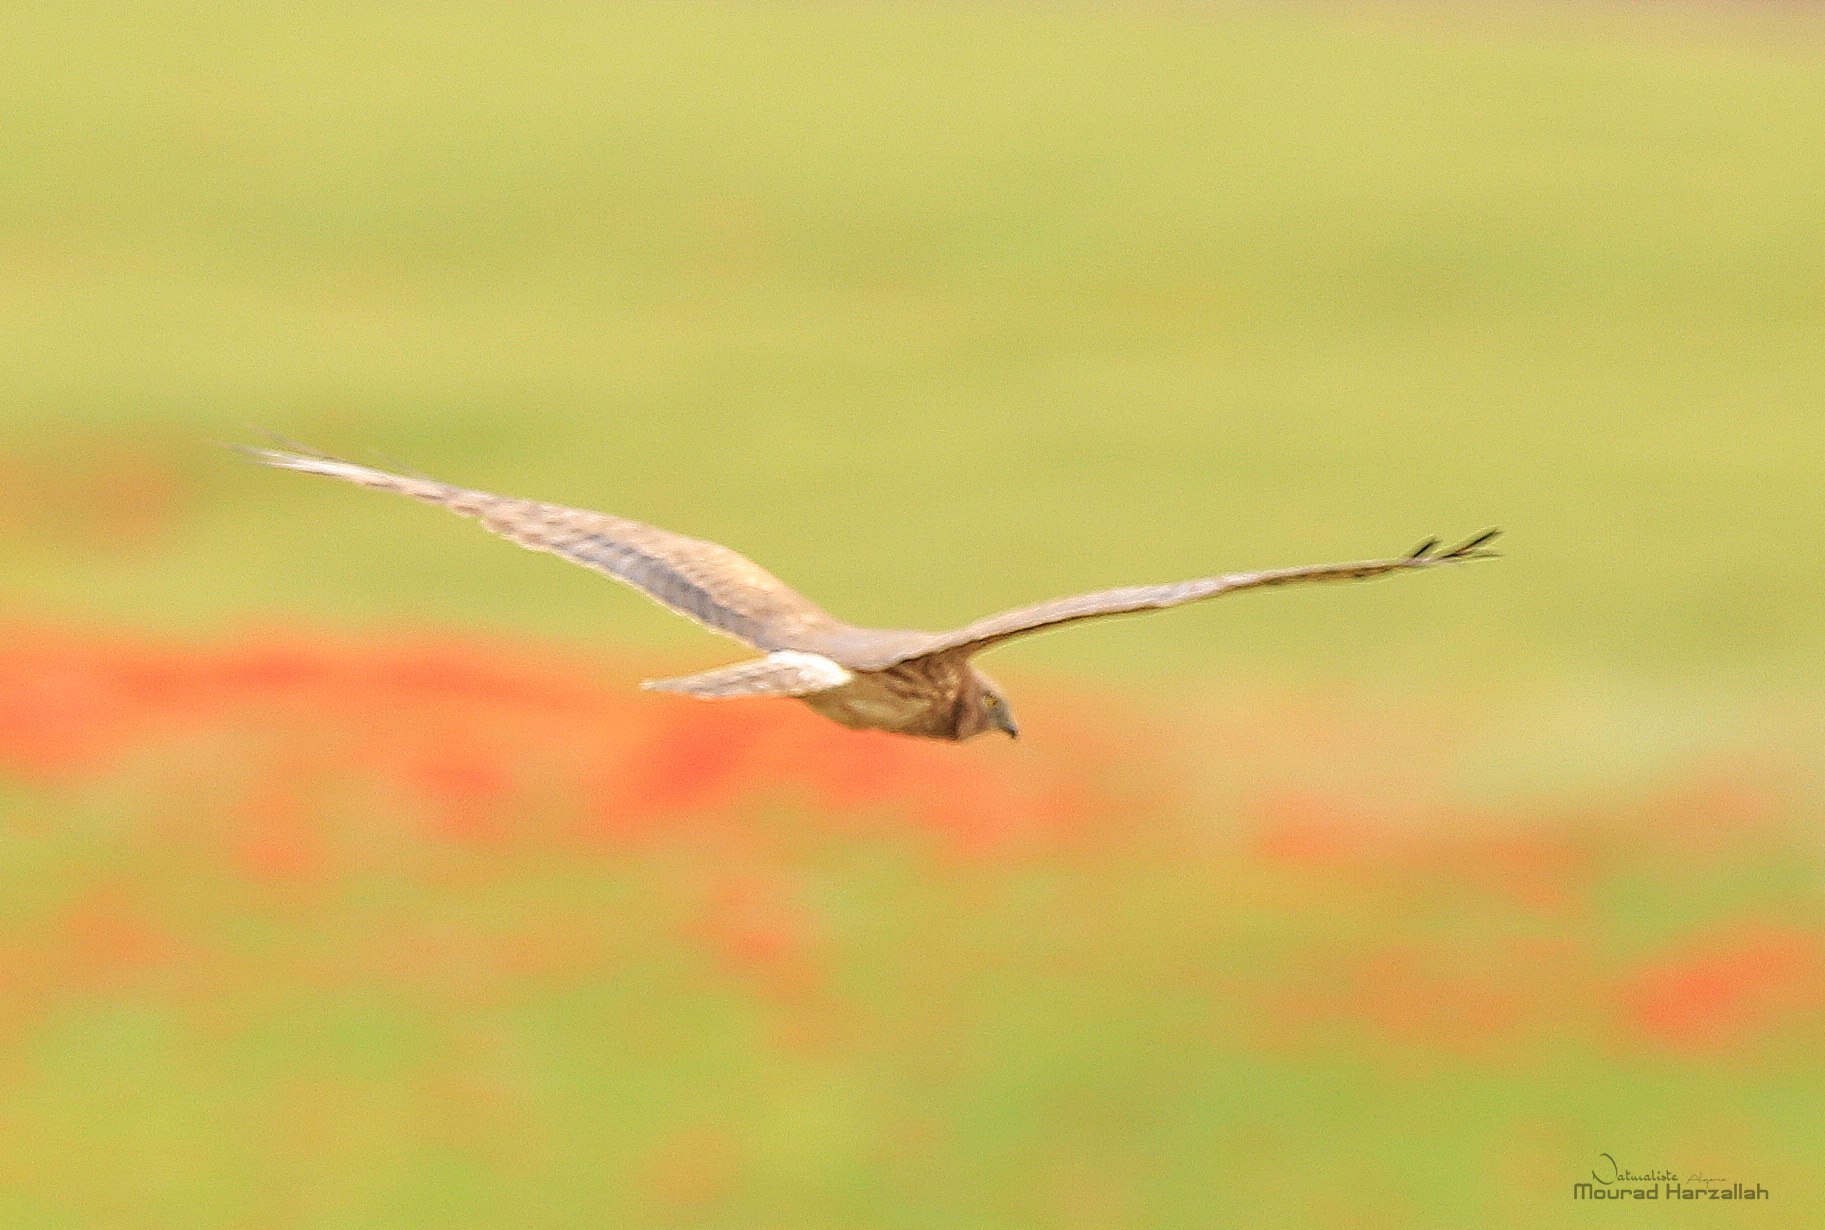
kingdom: Animalia
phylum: Chordata
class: Aves
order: Accipitriformes
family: Accipitridae
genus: Circus
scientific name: Circus pygargus
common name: Montagu's harrier
